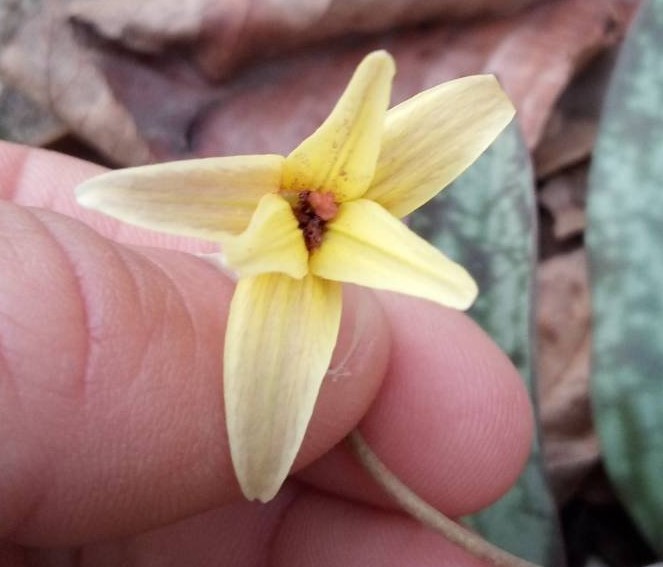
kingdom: Plantae
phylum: Tracheophyta
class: Liliopsida
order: Liliales
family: Liliaceae
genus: Erythronium
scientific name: Erythronium umbilicatum
